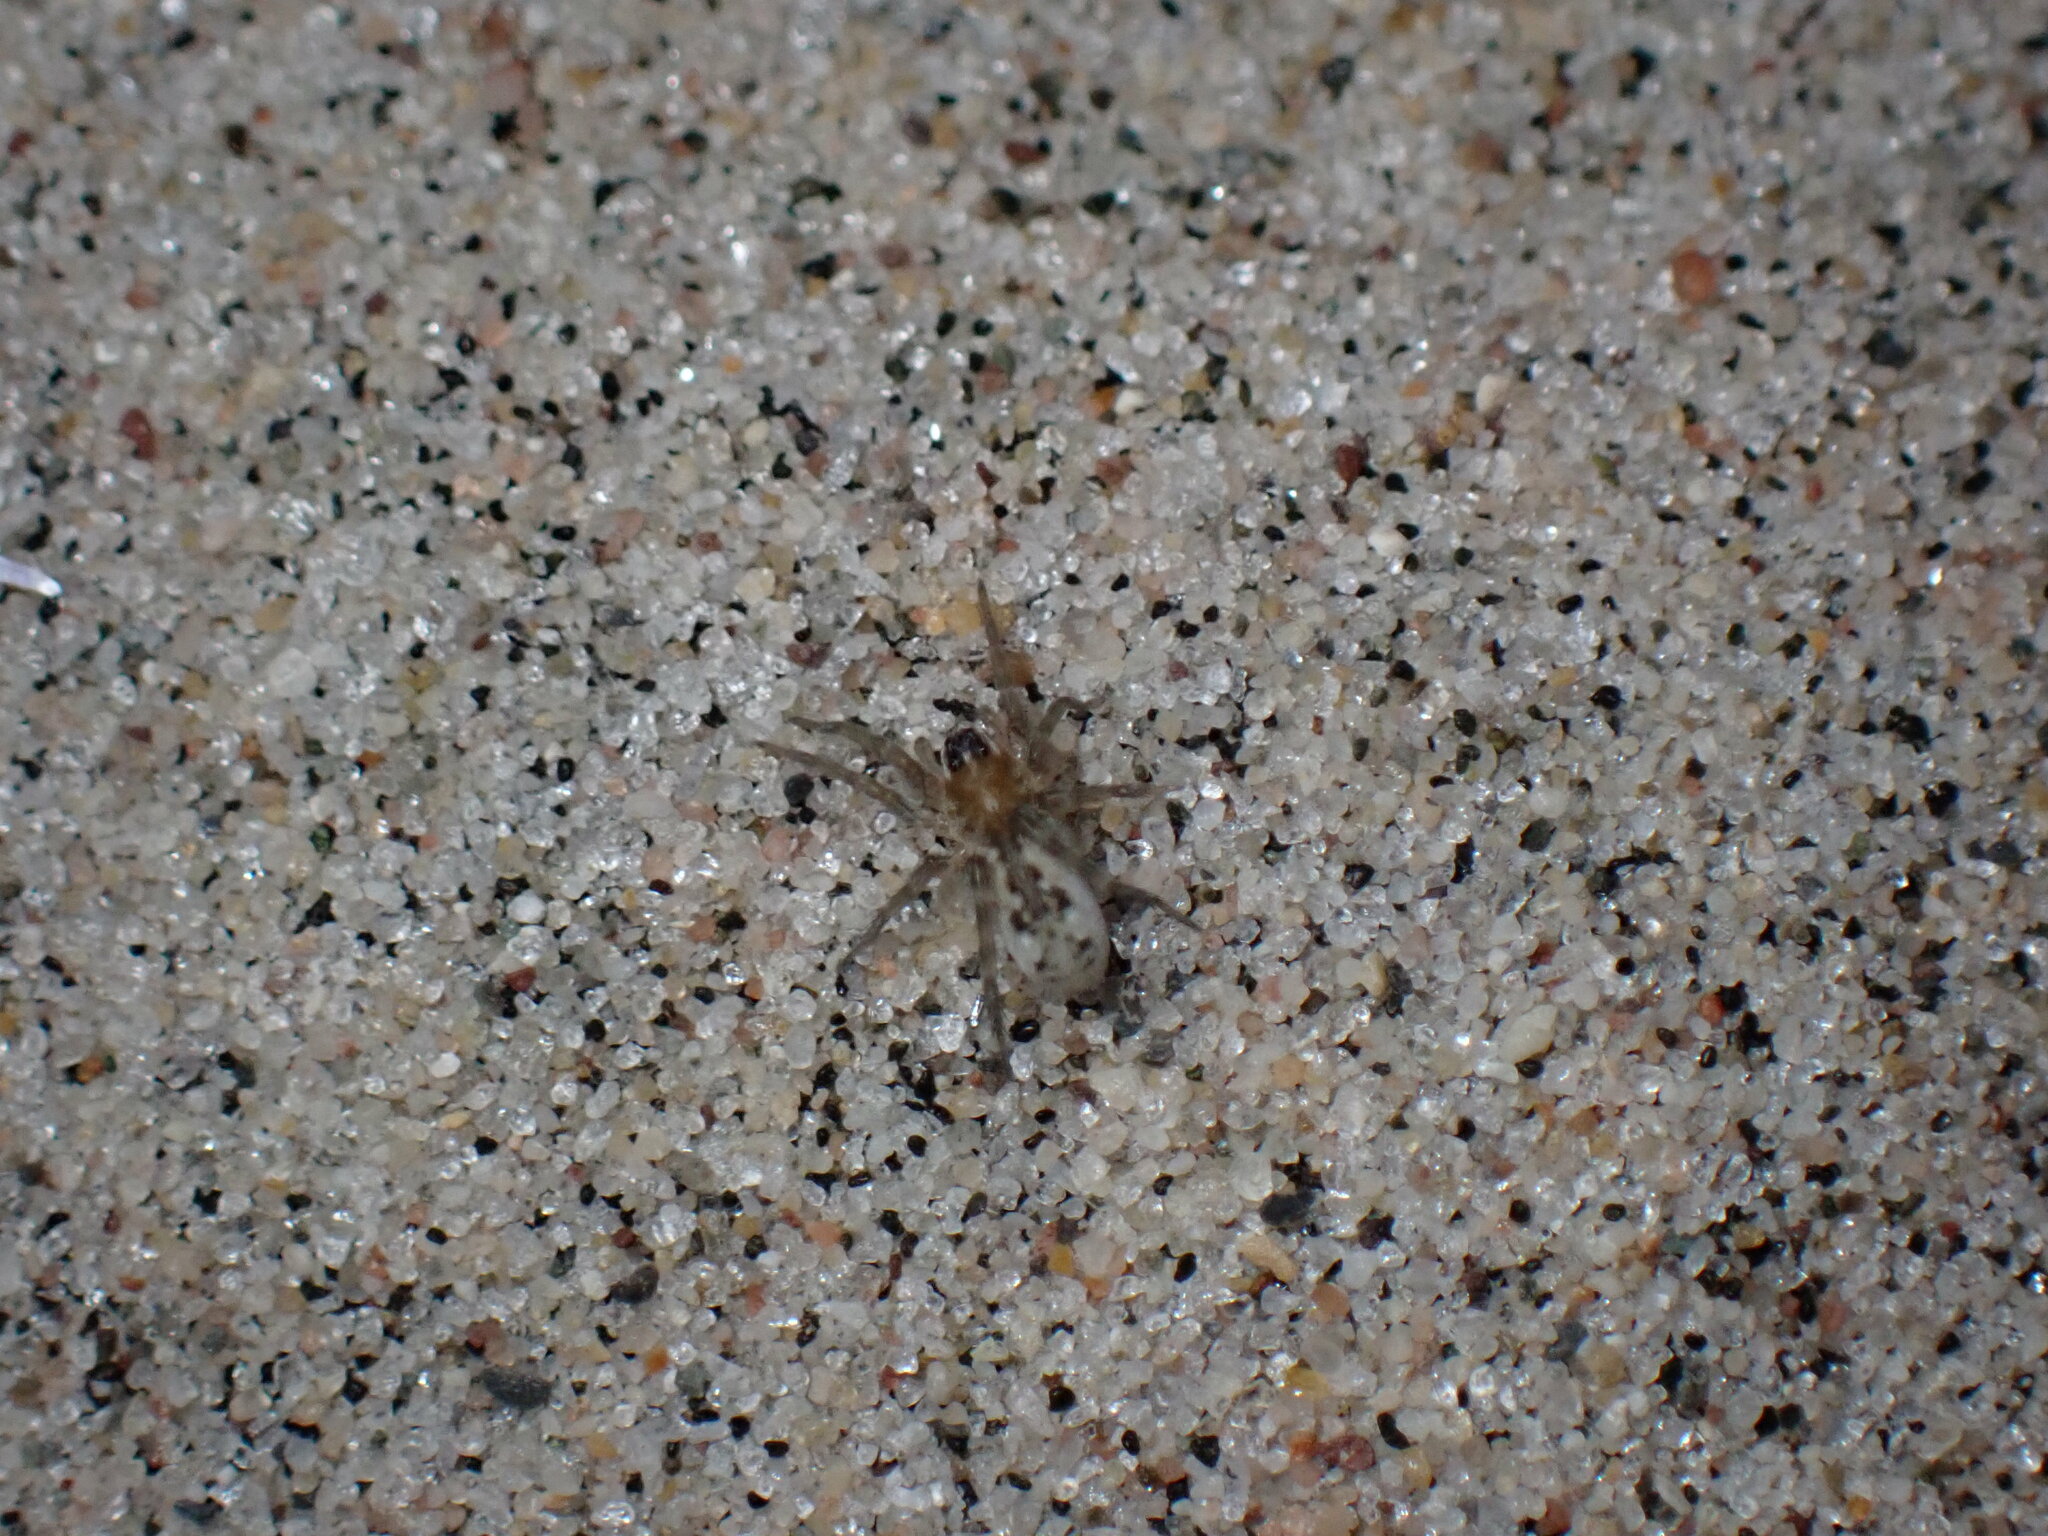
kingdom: Animalia
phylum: Arthropoda
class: Arachnida
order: Araneae
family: Lycosidae
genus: Arctosa
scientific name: Arctosa littoralis
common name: Wolf spiders
